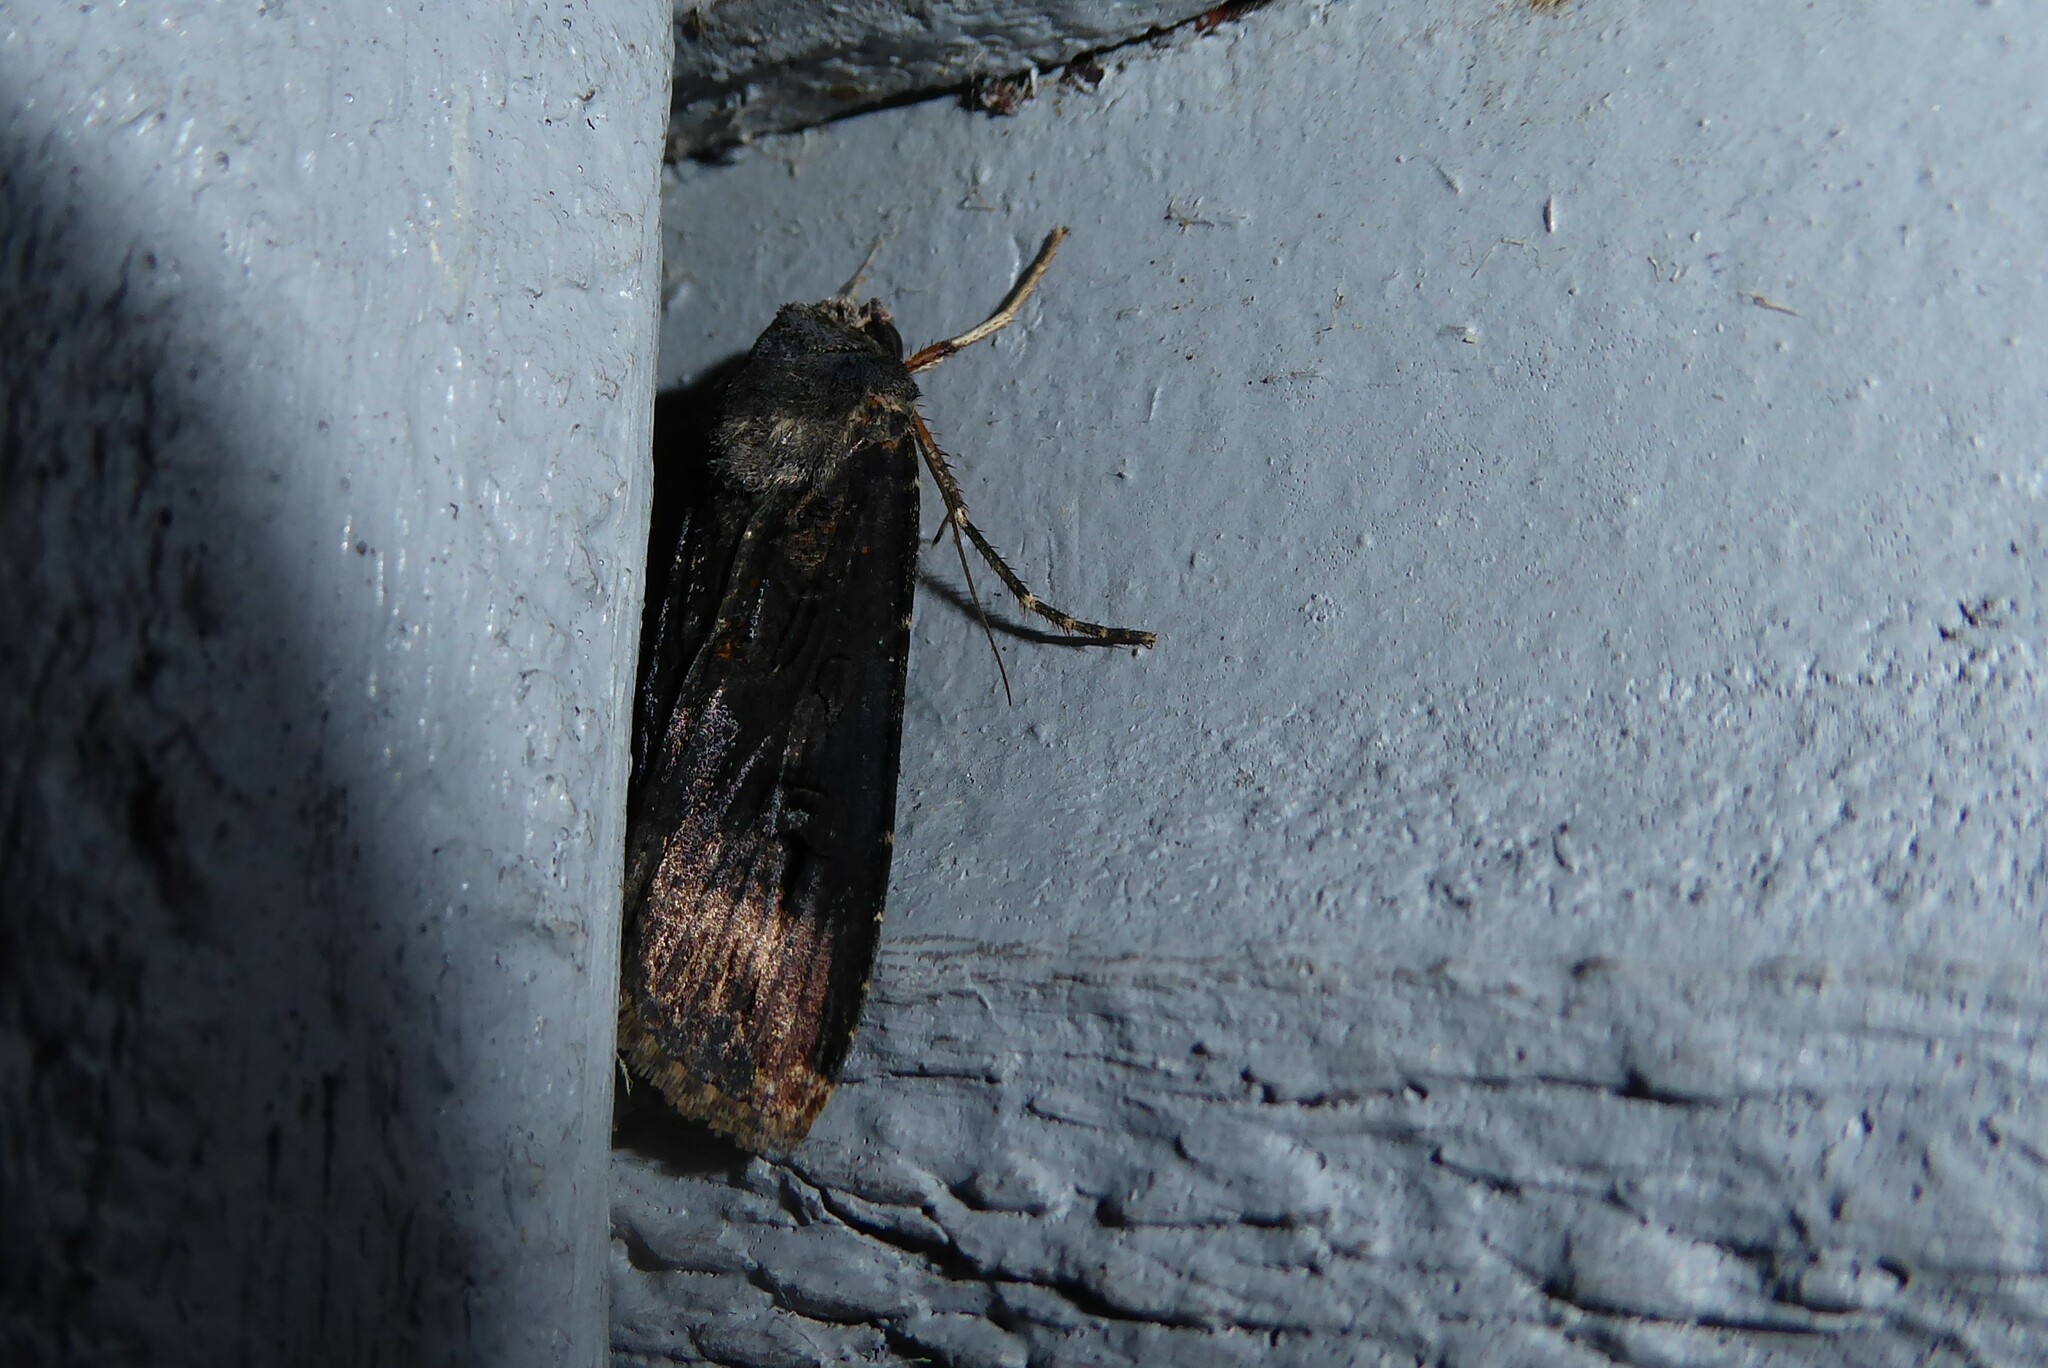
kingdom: Animalia
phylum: Arthropoda
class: Insecta
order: Lepidoptera
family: Noctuidae
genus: Agrotis
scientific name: Agrotis ipsilon
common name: Dark sword-grass
